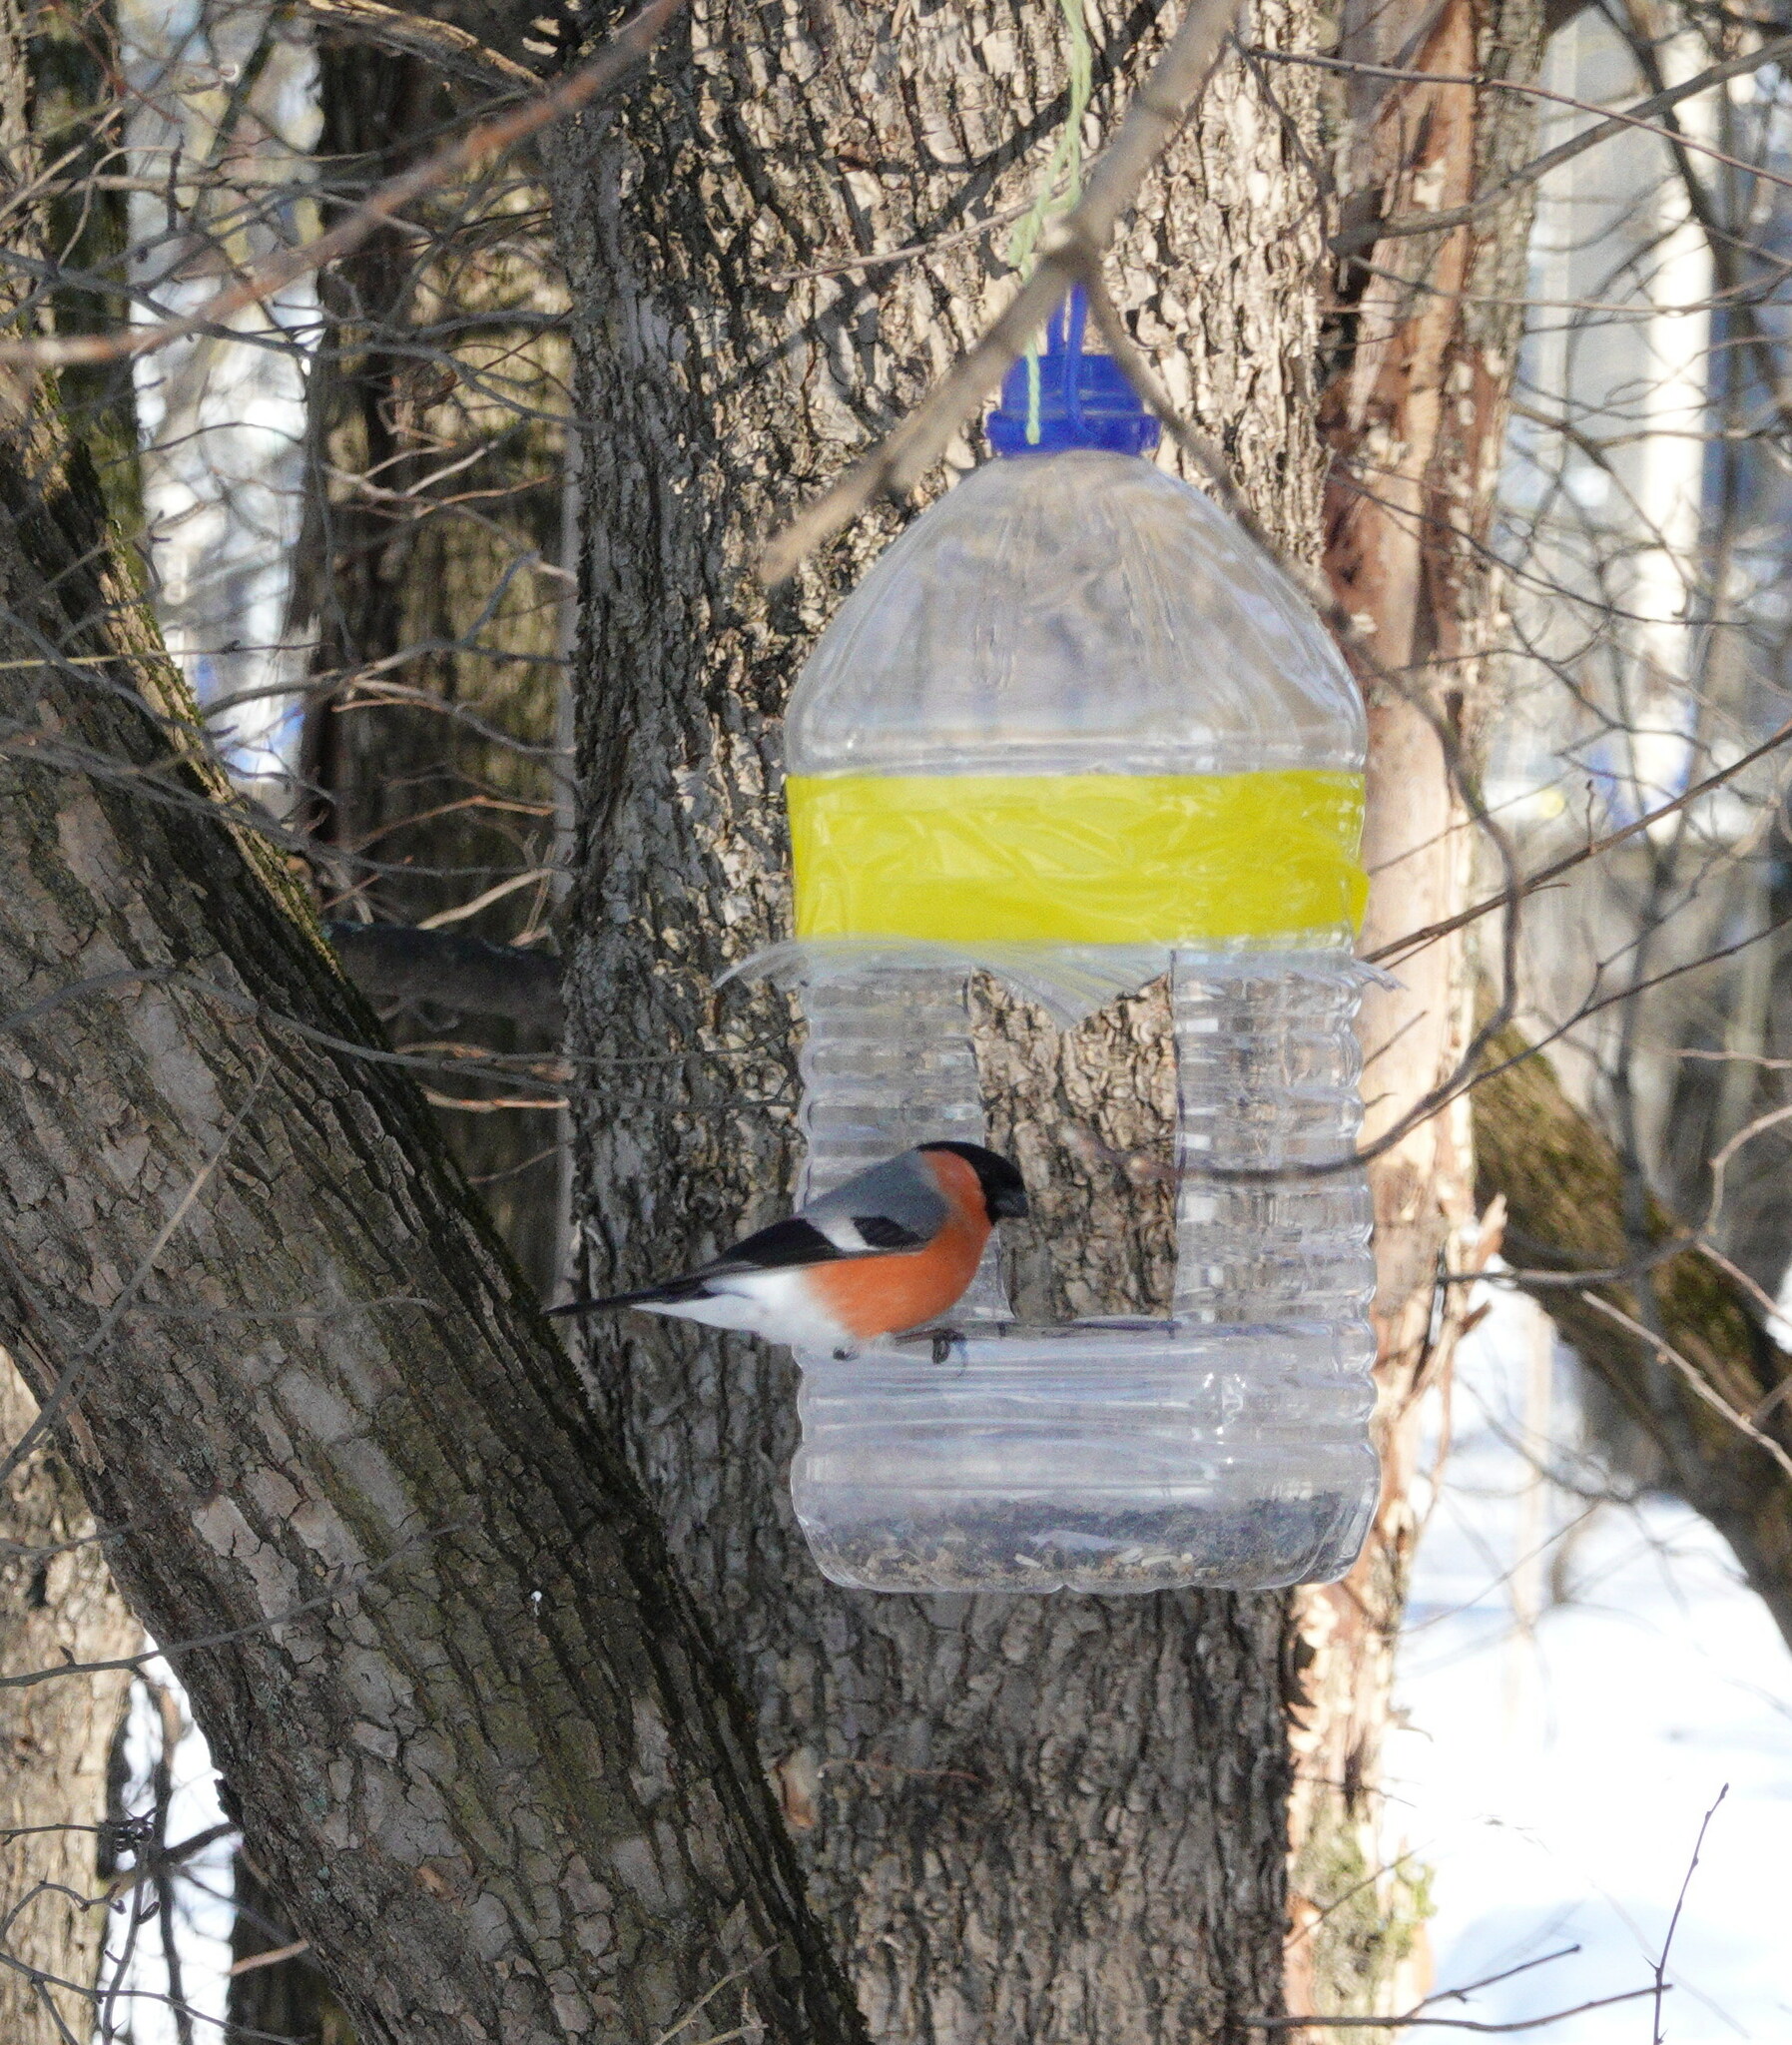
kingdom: Animalia
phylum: Chordata
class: Aves
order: Passeriformes
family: Fringillidae
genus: Pyrrhula
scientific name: Pyrrhula pyrrhula
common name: Eurasian bullfinch
